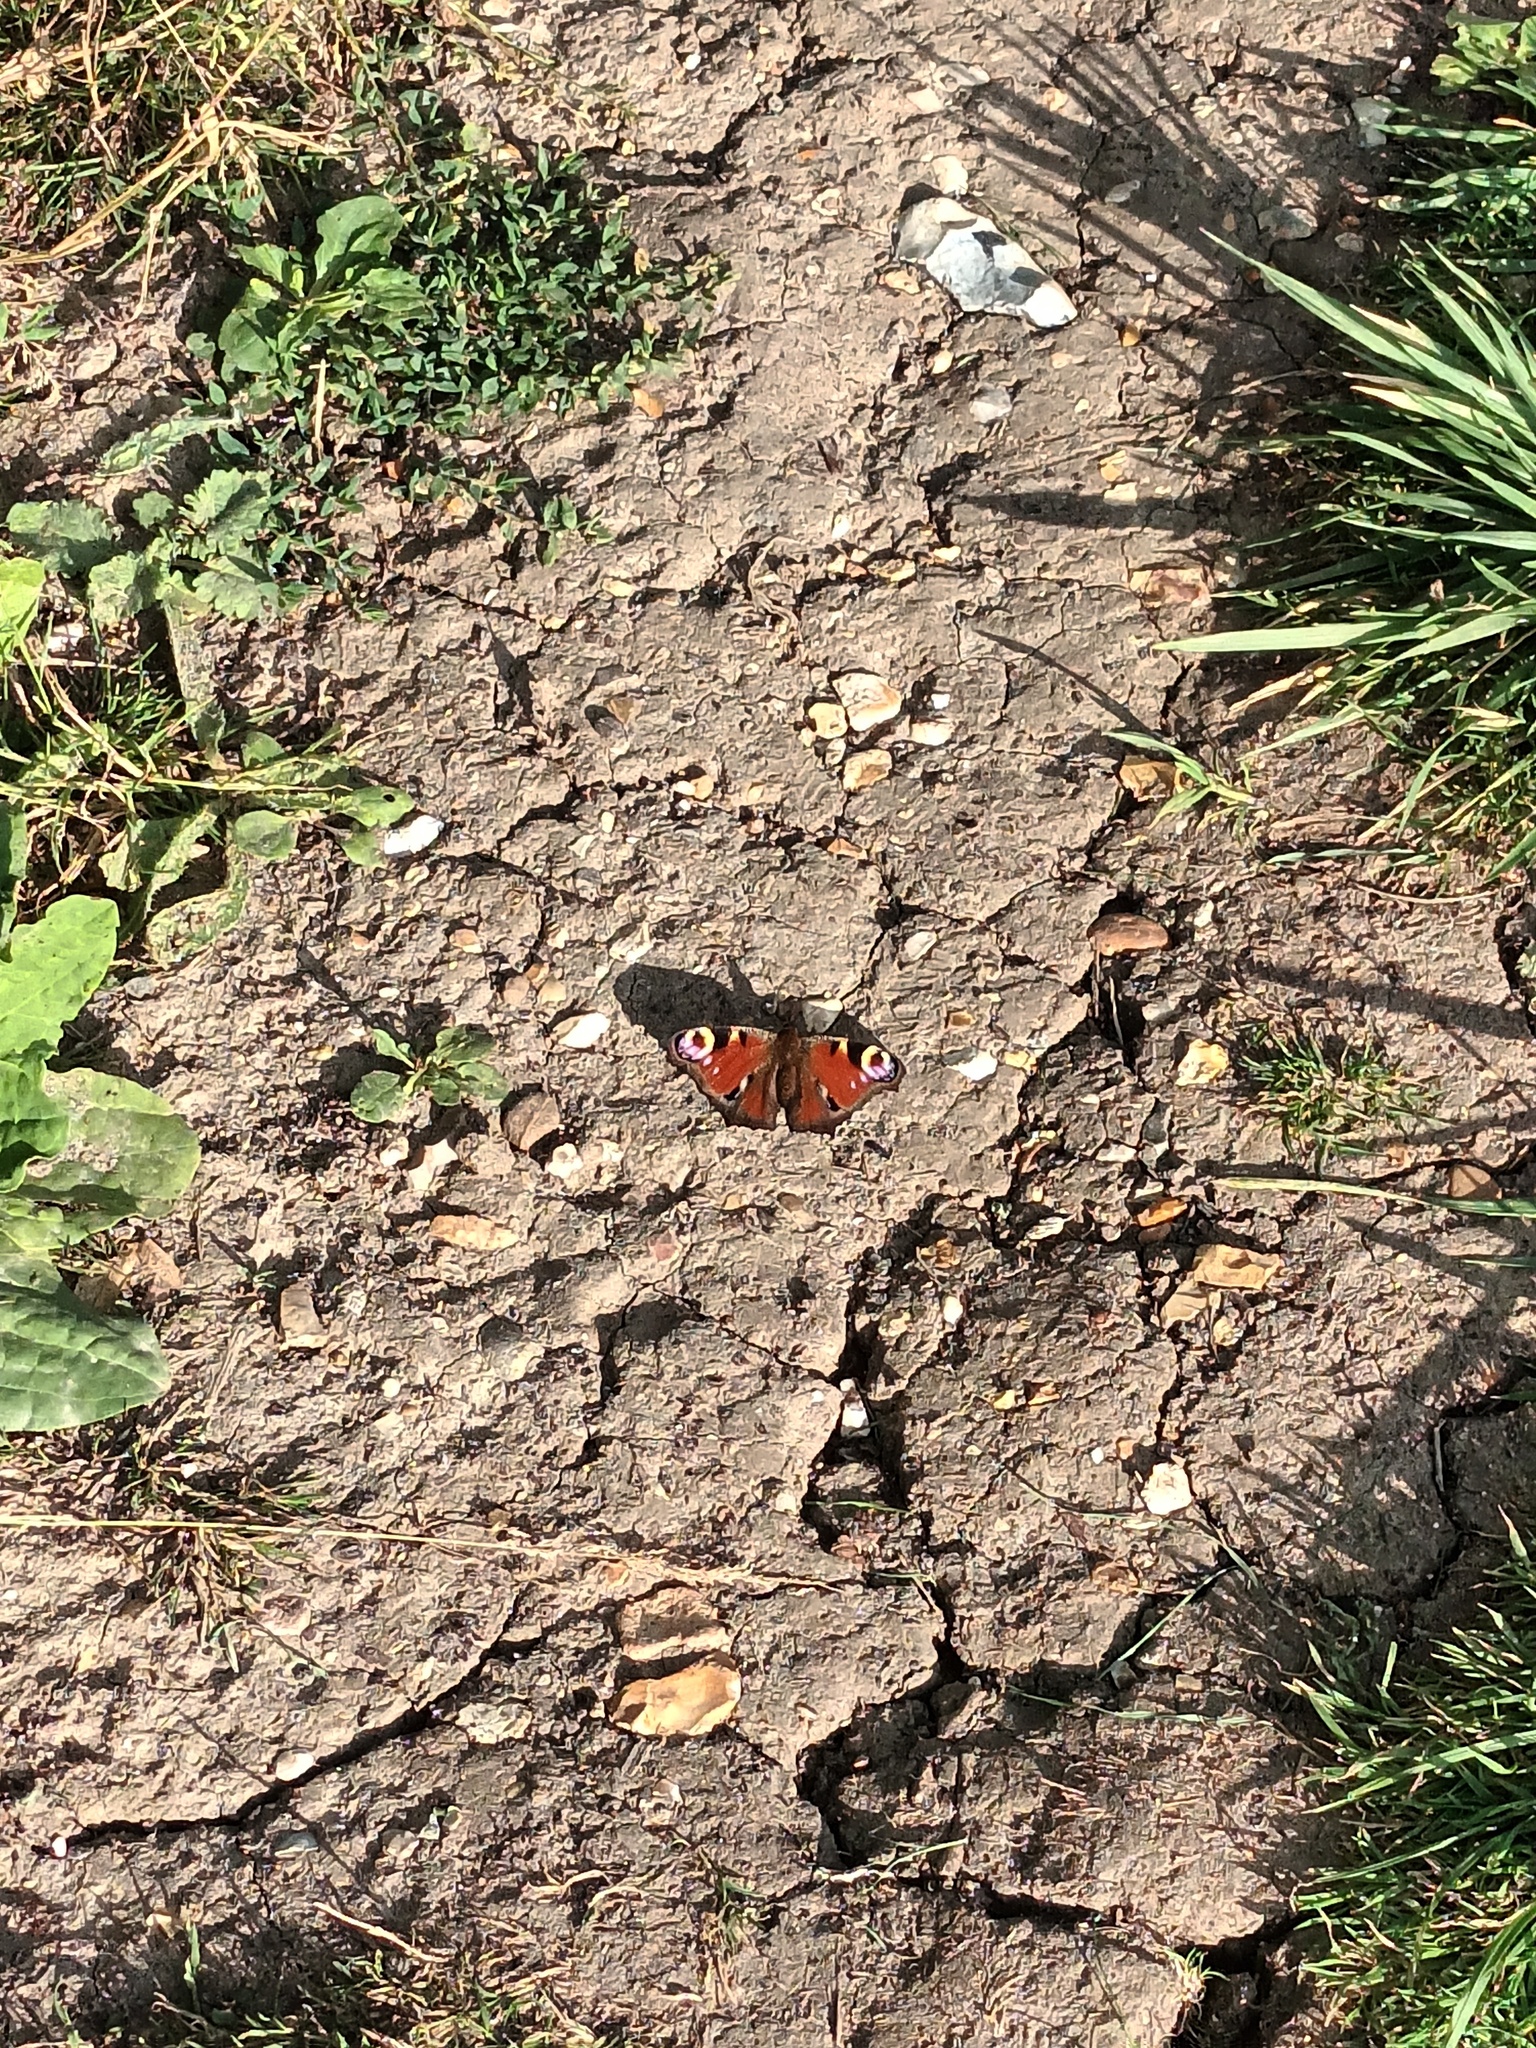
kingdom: Animalia
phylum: Arthropoda
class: Insecta
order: Lepidoptera
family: Nymphalidae
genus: Aglais
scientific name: Aglais io
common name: Peacock
